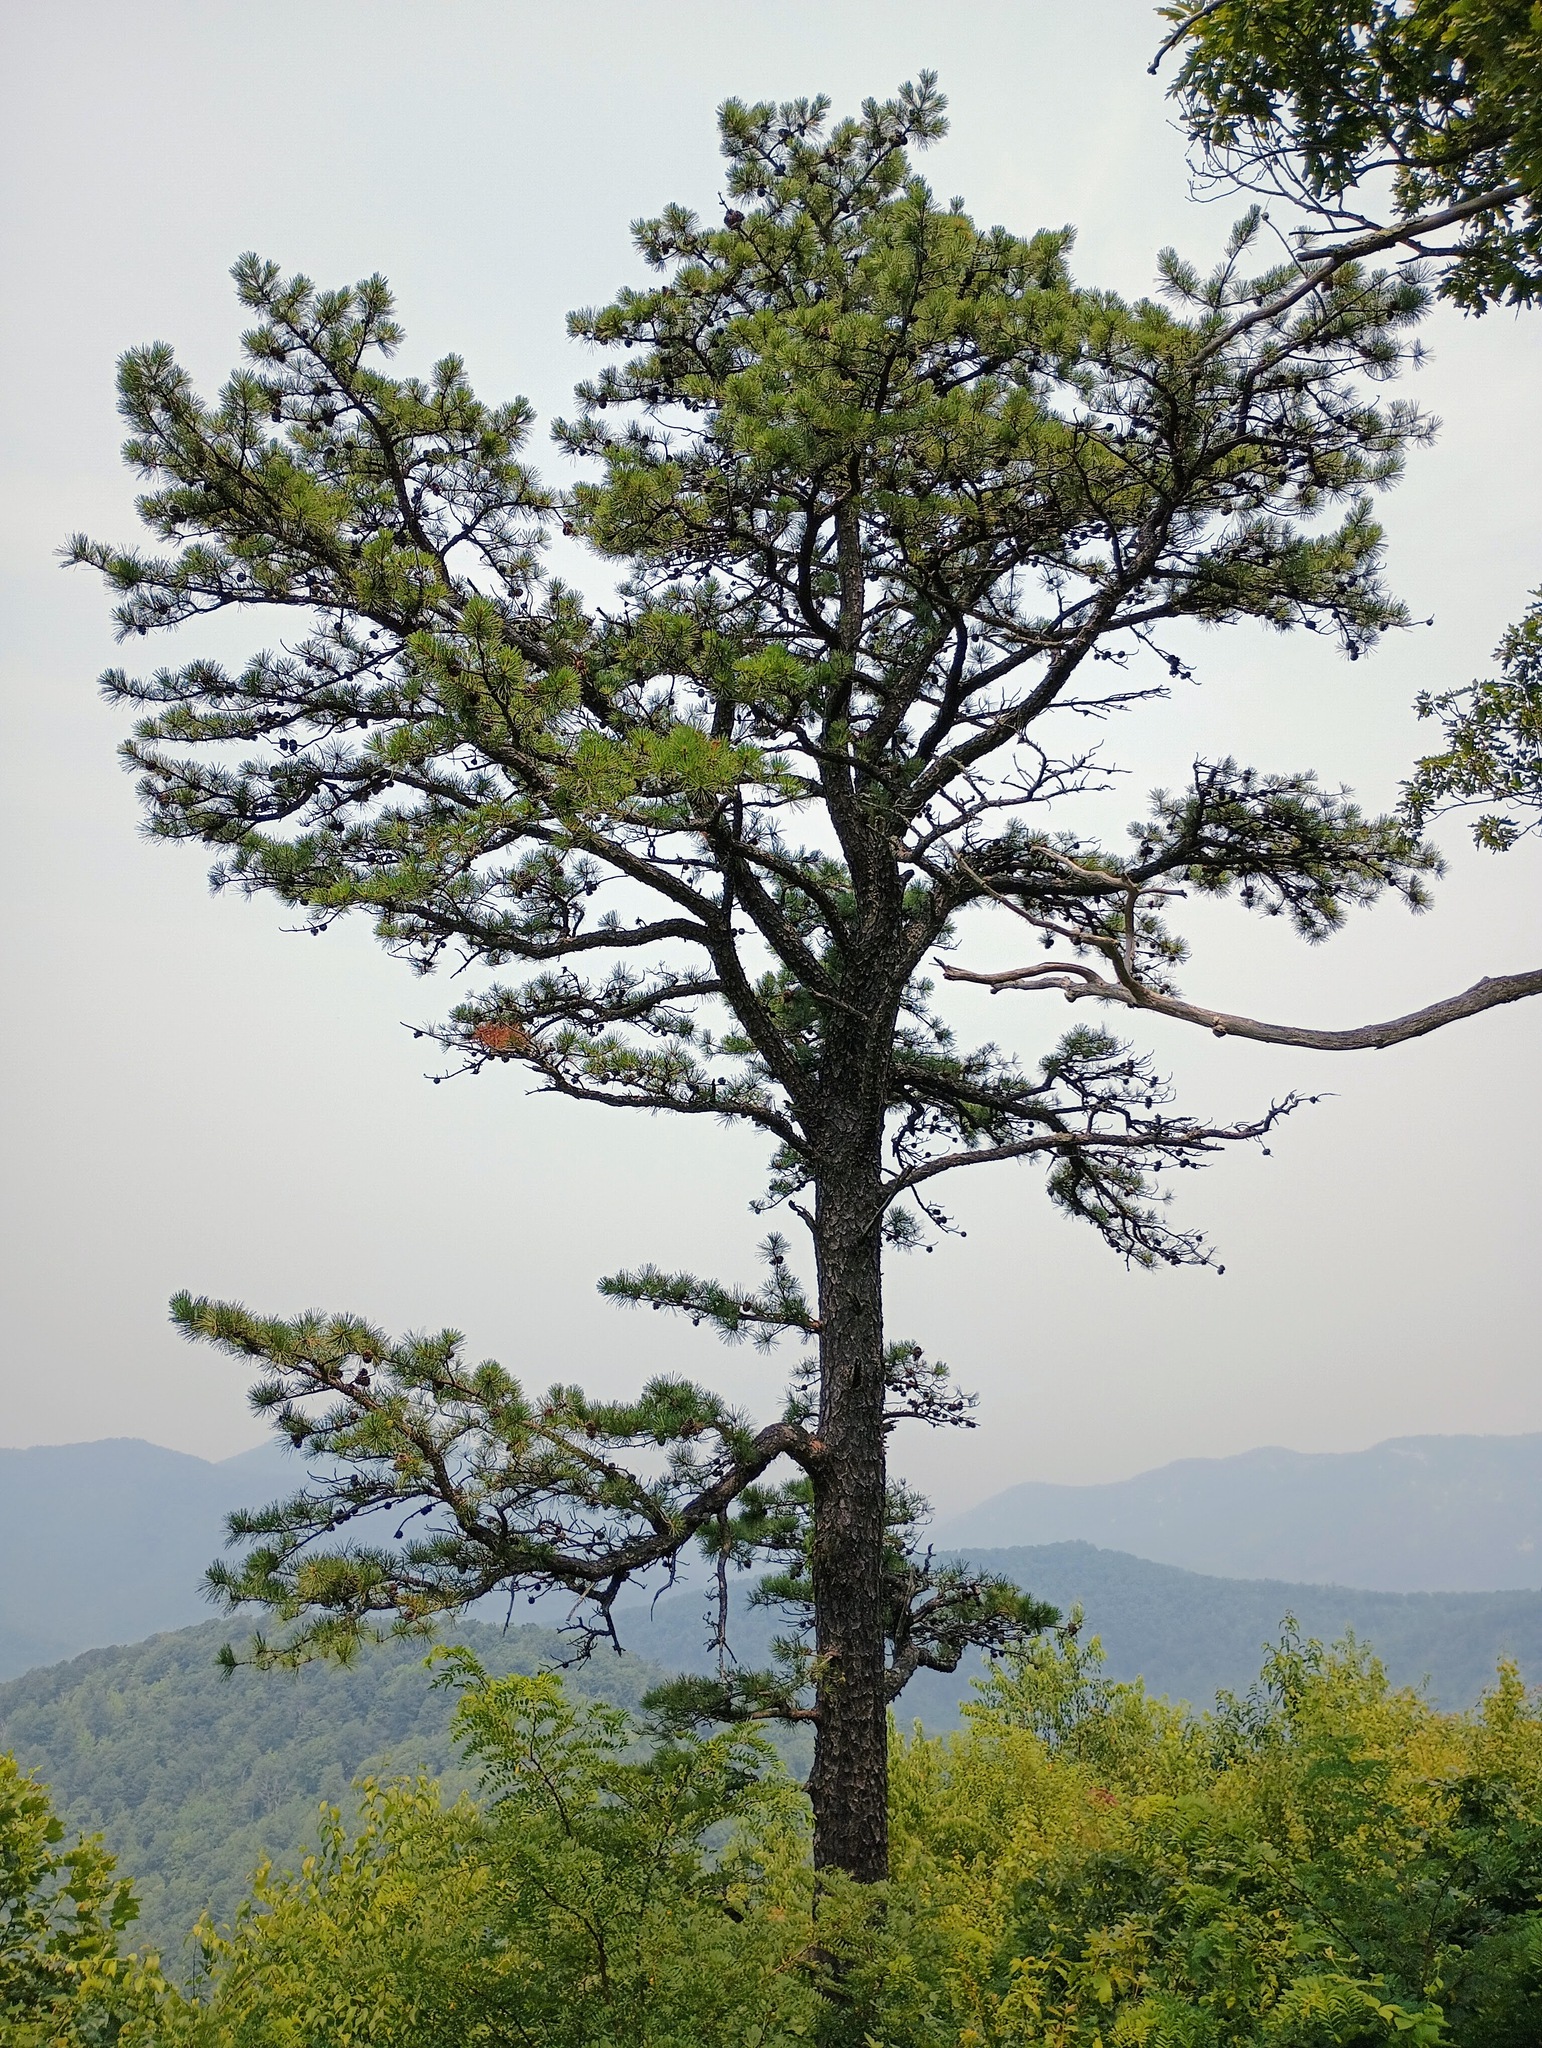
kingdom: Plantae
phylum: Tracheophyta
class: Pinopsida
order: Pinales
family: Pinaceae
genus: Pinus
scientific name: Pinus virginiana
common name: Scrub pine
